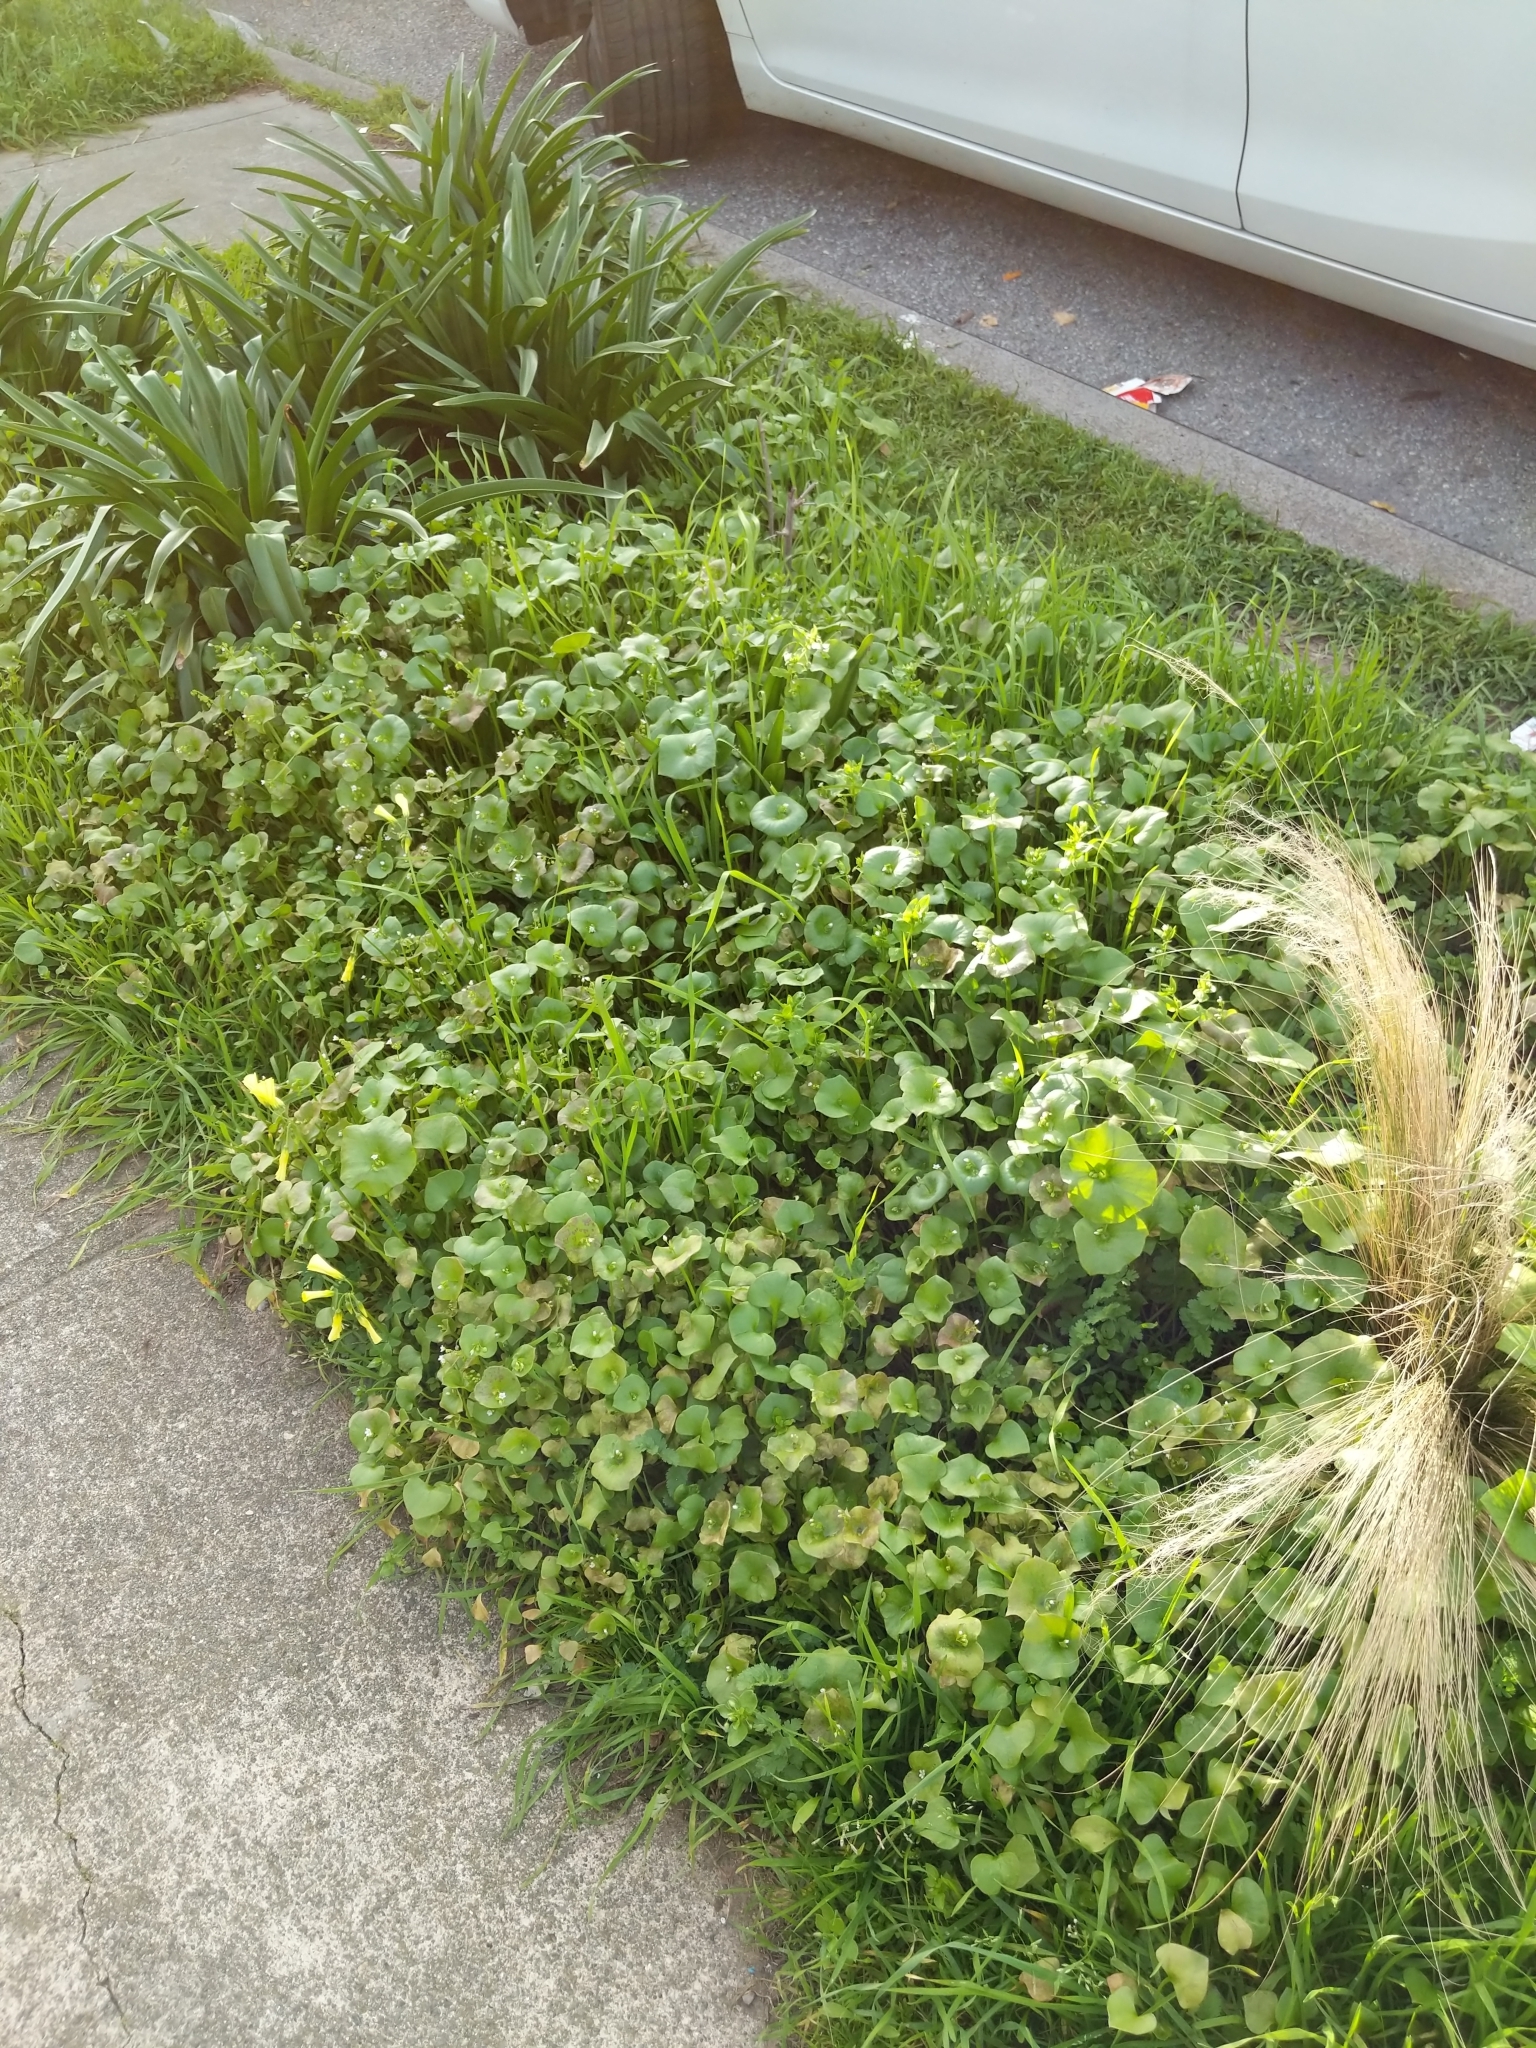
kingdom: Plantae
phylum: Tracheophyta
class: Magnoliopsida
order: Caryophyllales
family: Montiaceae
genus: Claytonia
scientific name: Claytonia perfoliata
